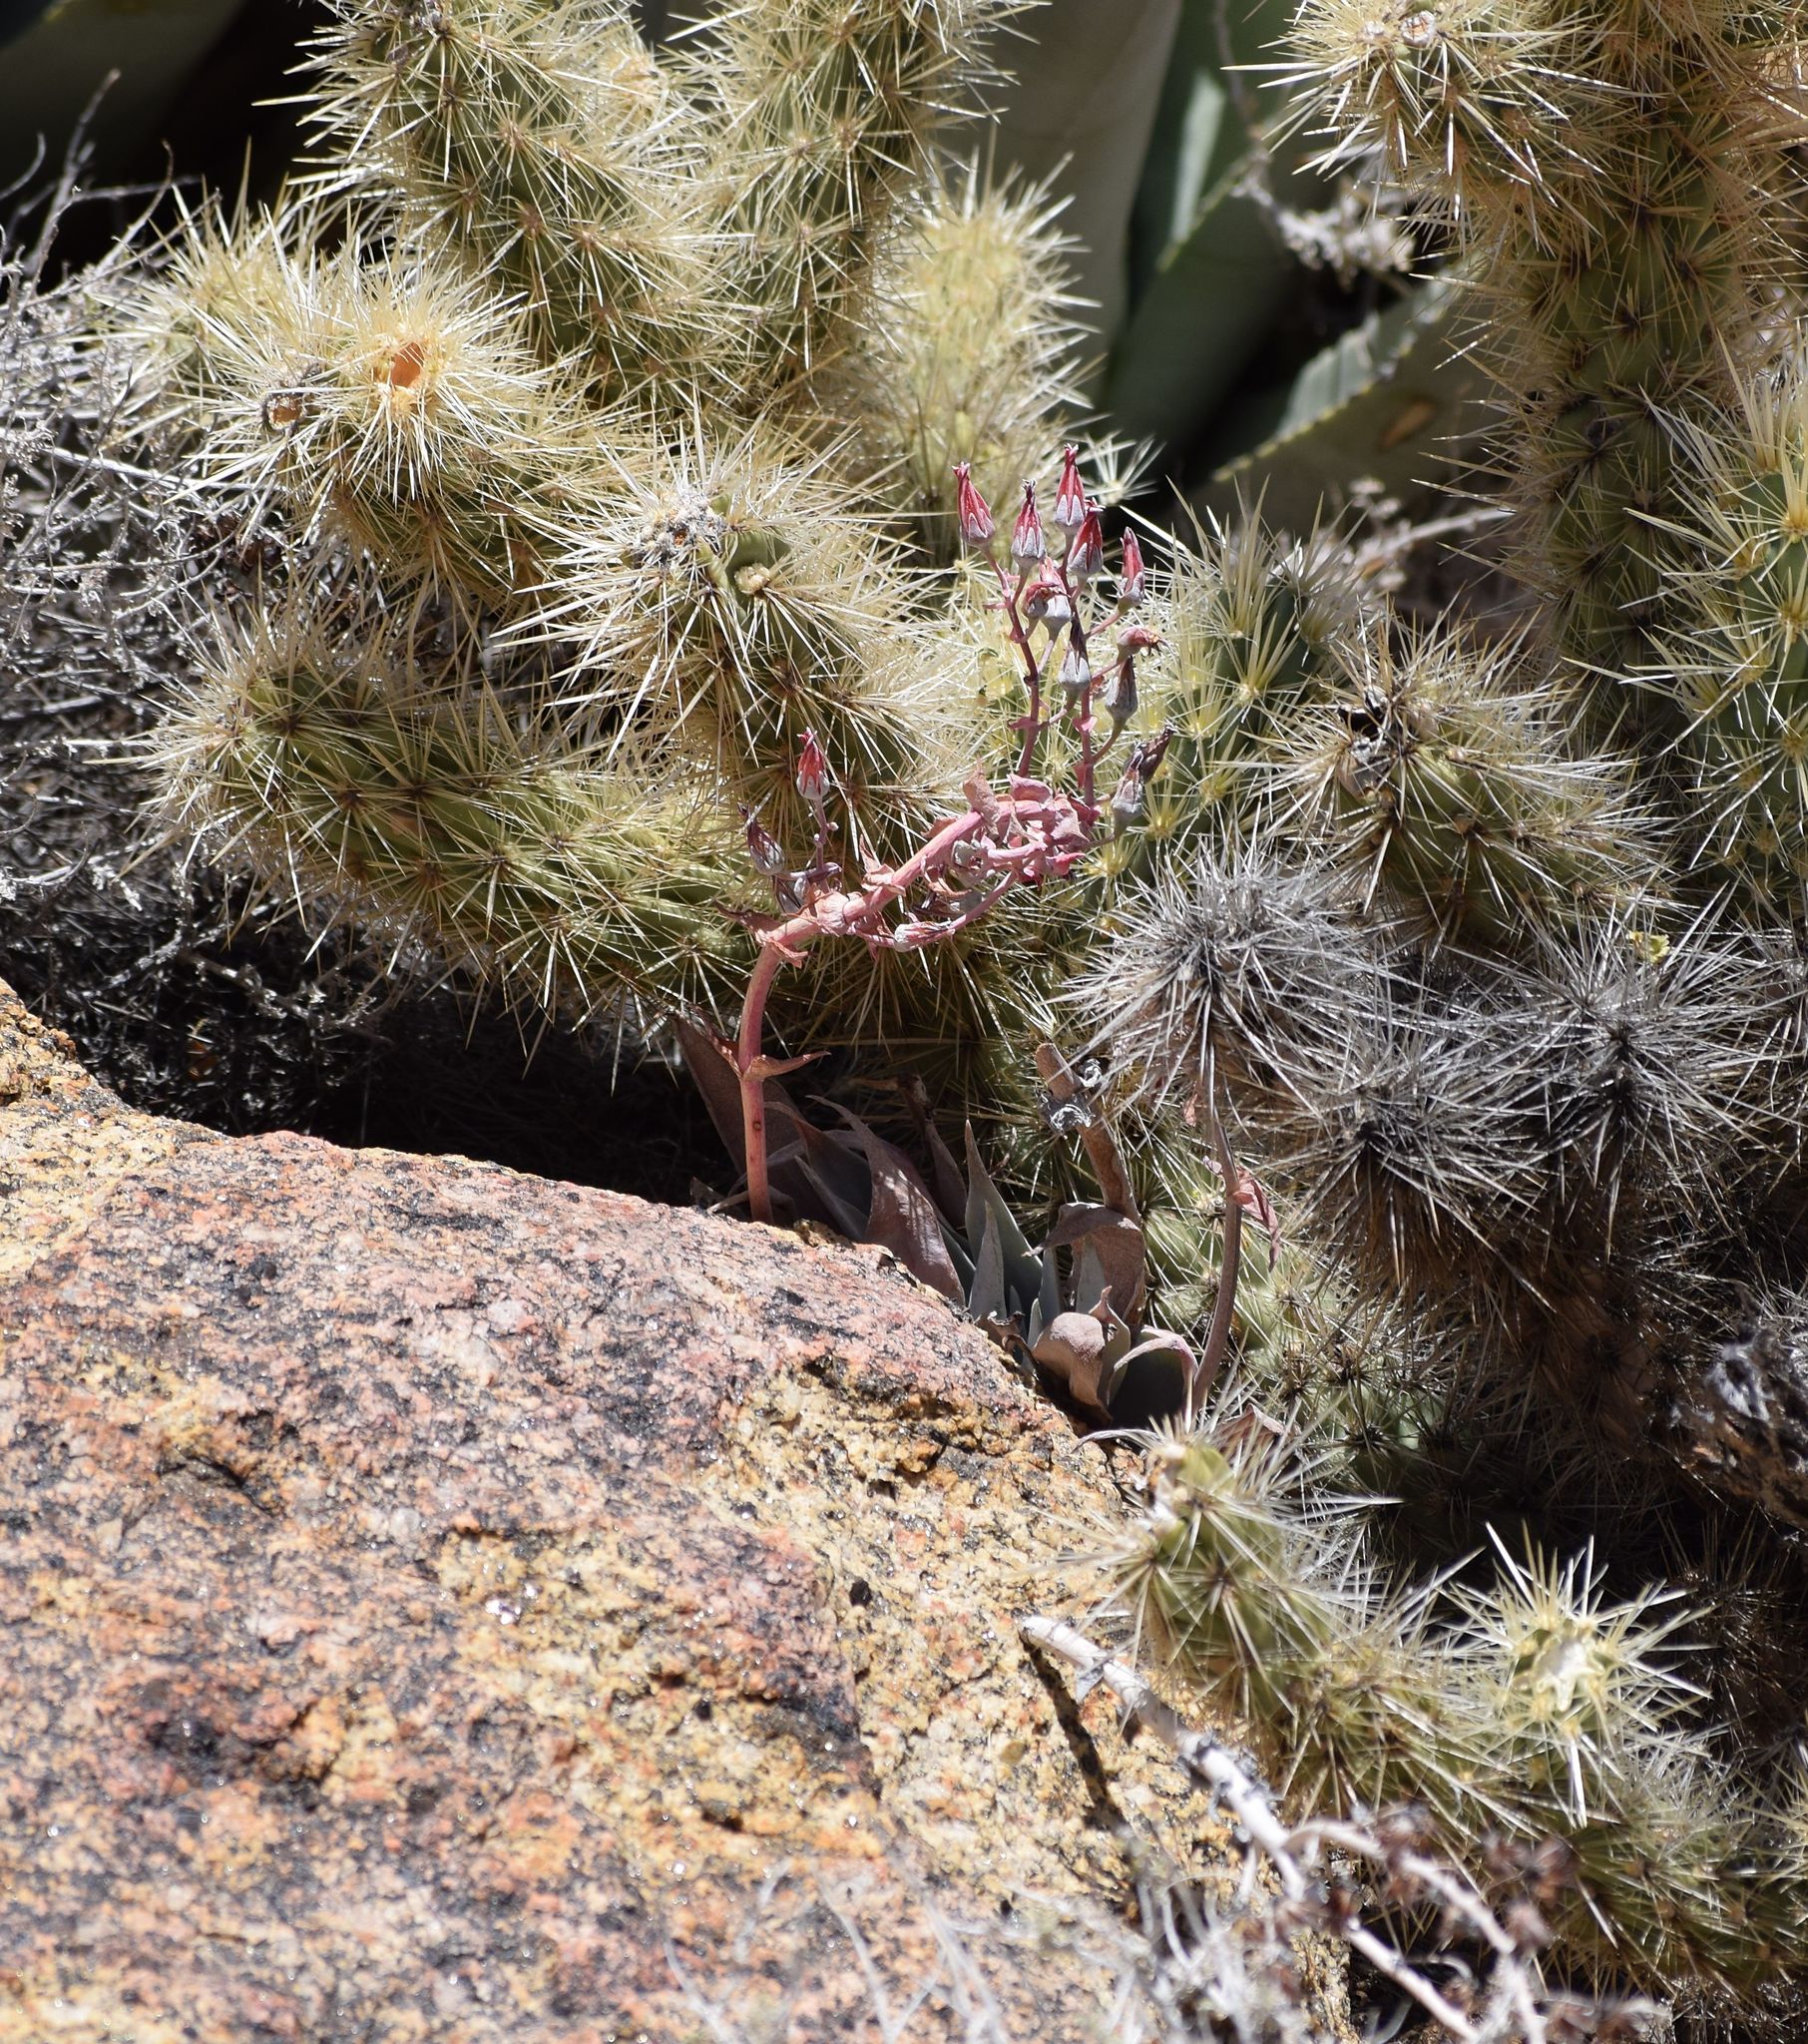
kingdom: Plantae
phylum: Tracheophyta
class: Magnoliopsida
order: Saxifragales
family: Crassulaceae
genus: Dudleya
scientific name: Dudleya arizonica
